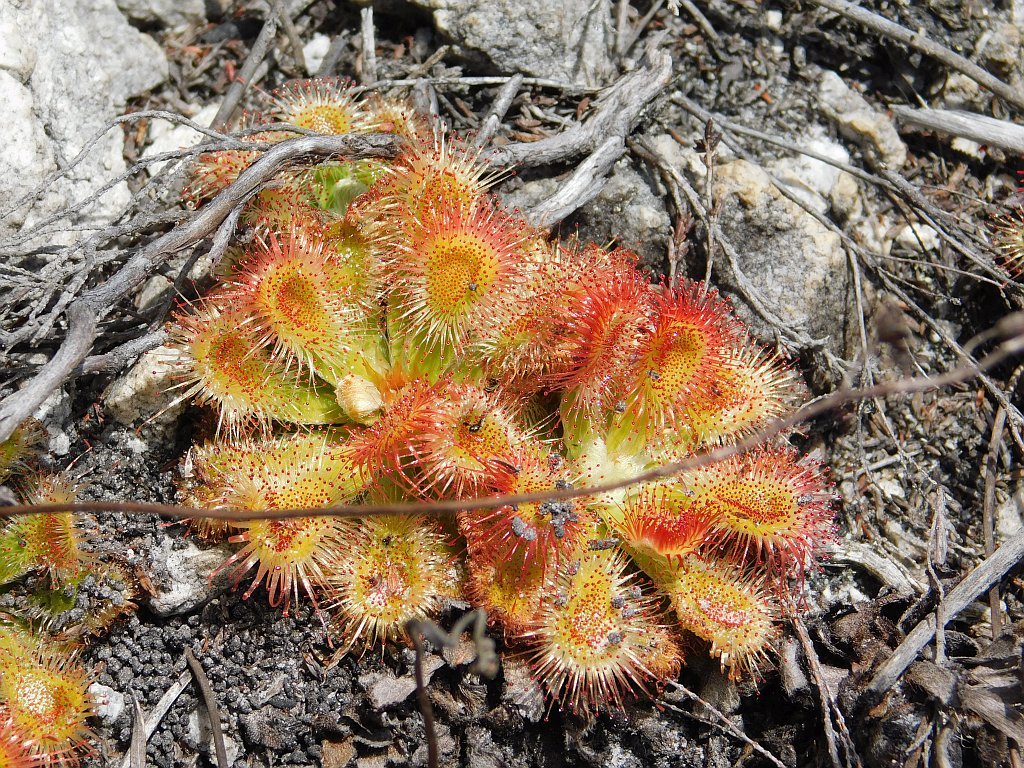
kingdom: Plantae
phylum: Tracheophyta
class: Magnoliopsida
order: Caryophyllales
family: Droseraceae
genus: Drosera
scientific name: Drosera aliciae
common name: Alice sundew
